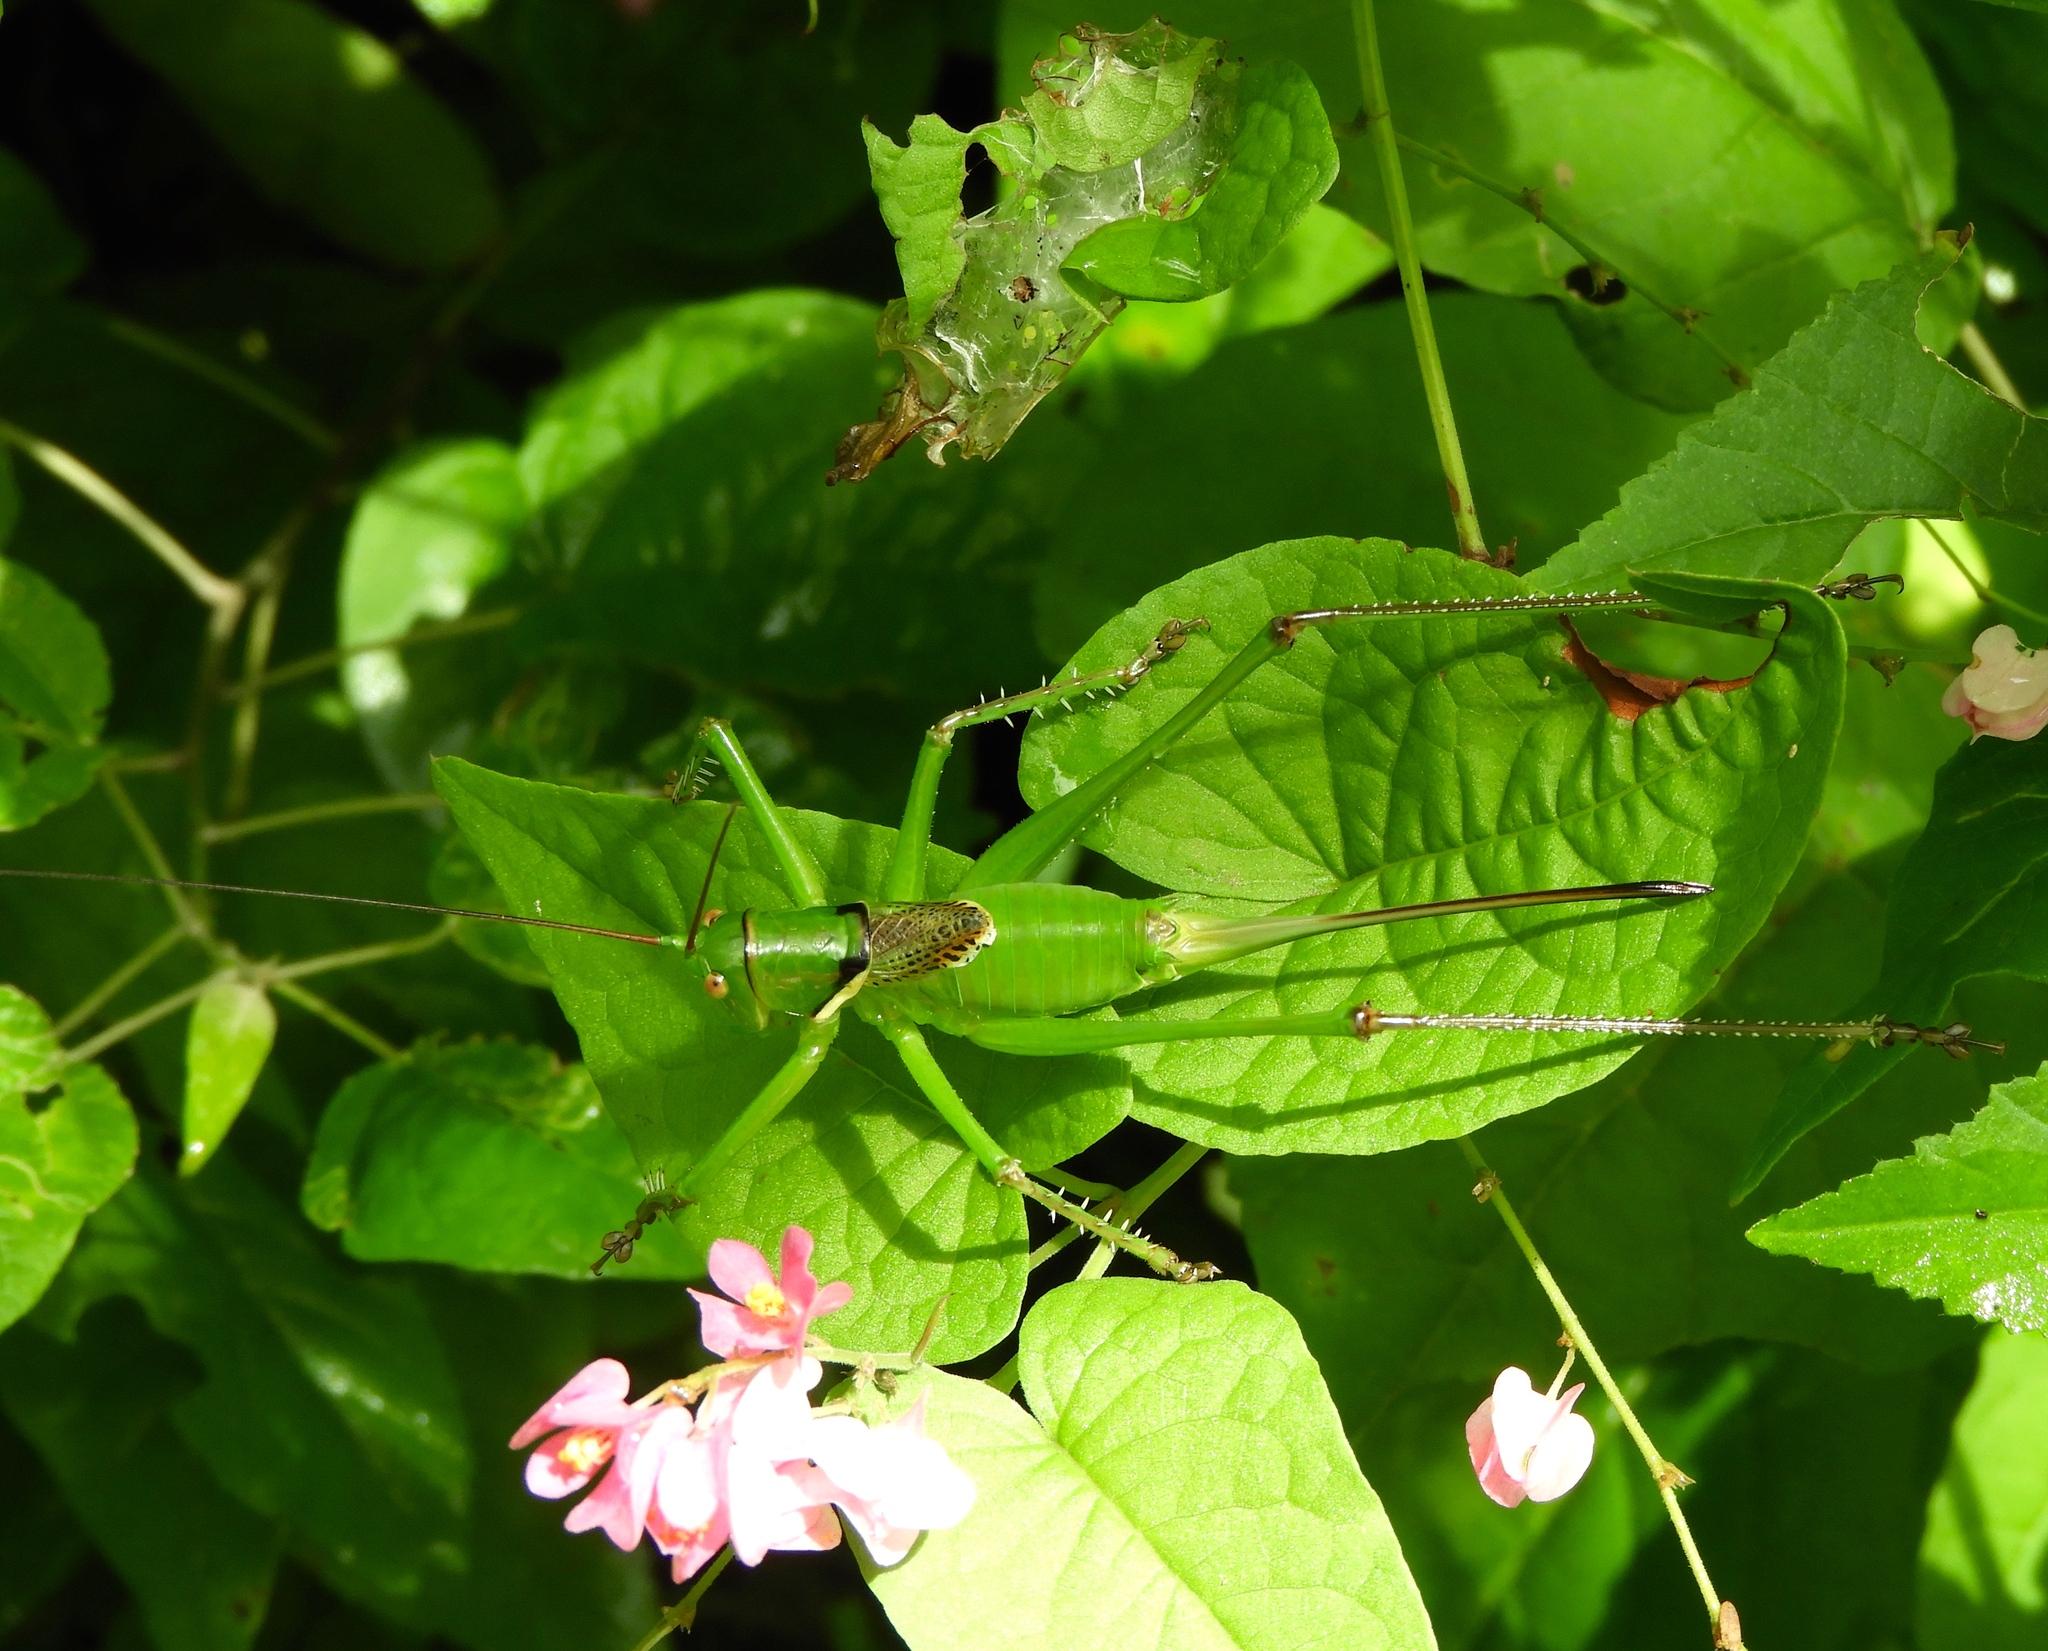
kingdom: Animalia
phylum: Arthropoda
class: Insecta
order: Orthoptera
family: Tettigoniidae
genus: Neobarrettia
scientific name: Neobarrettia sinaloae
